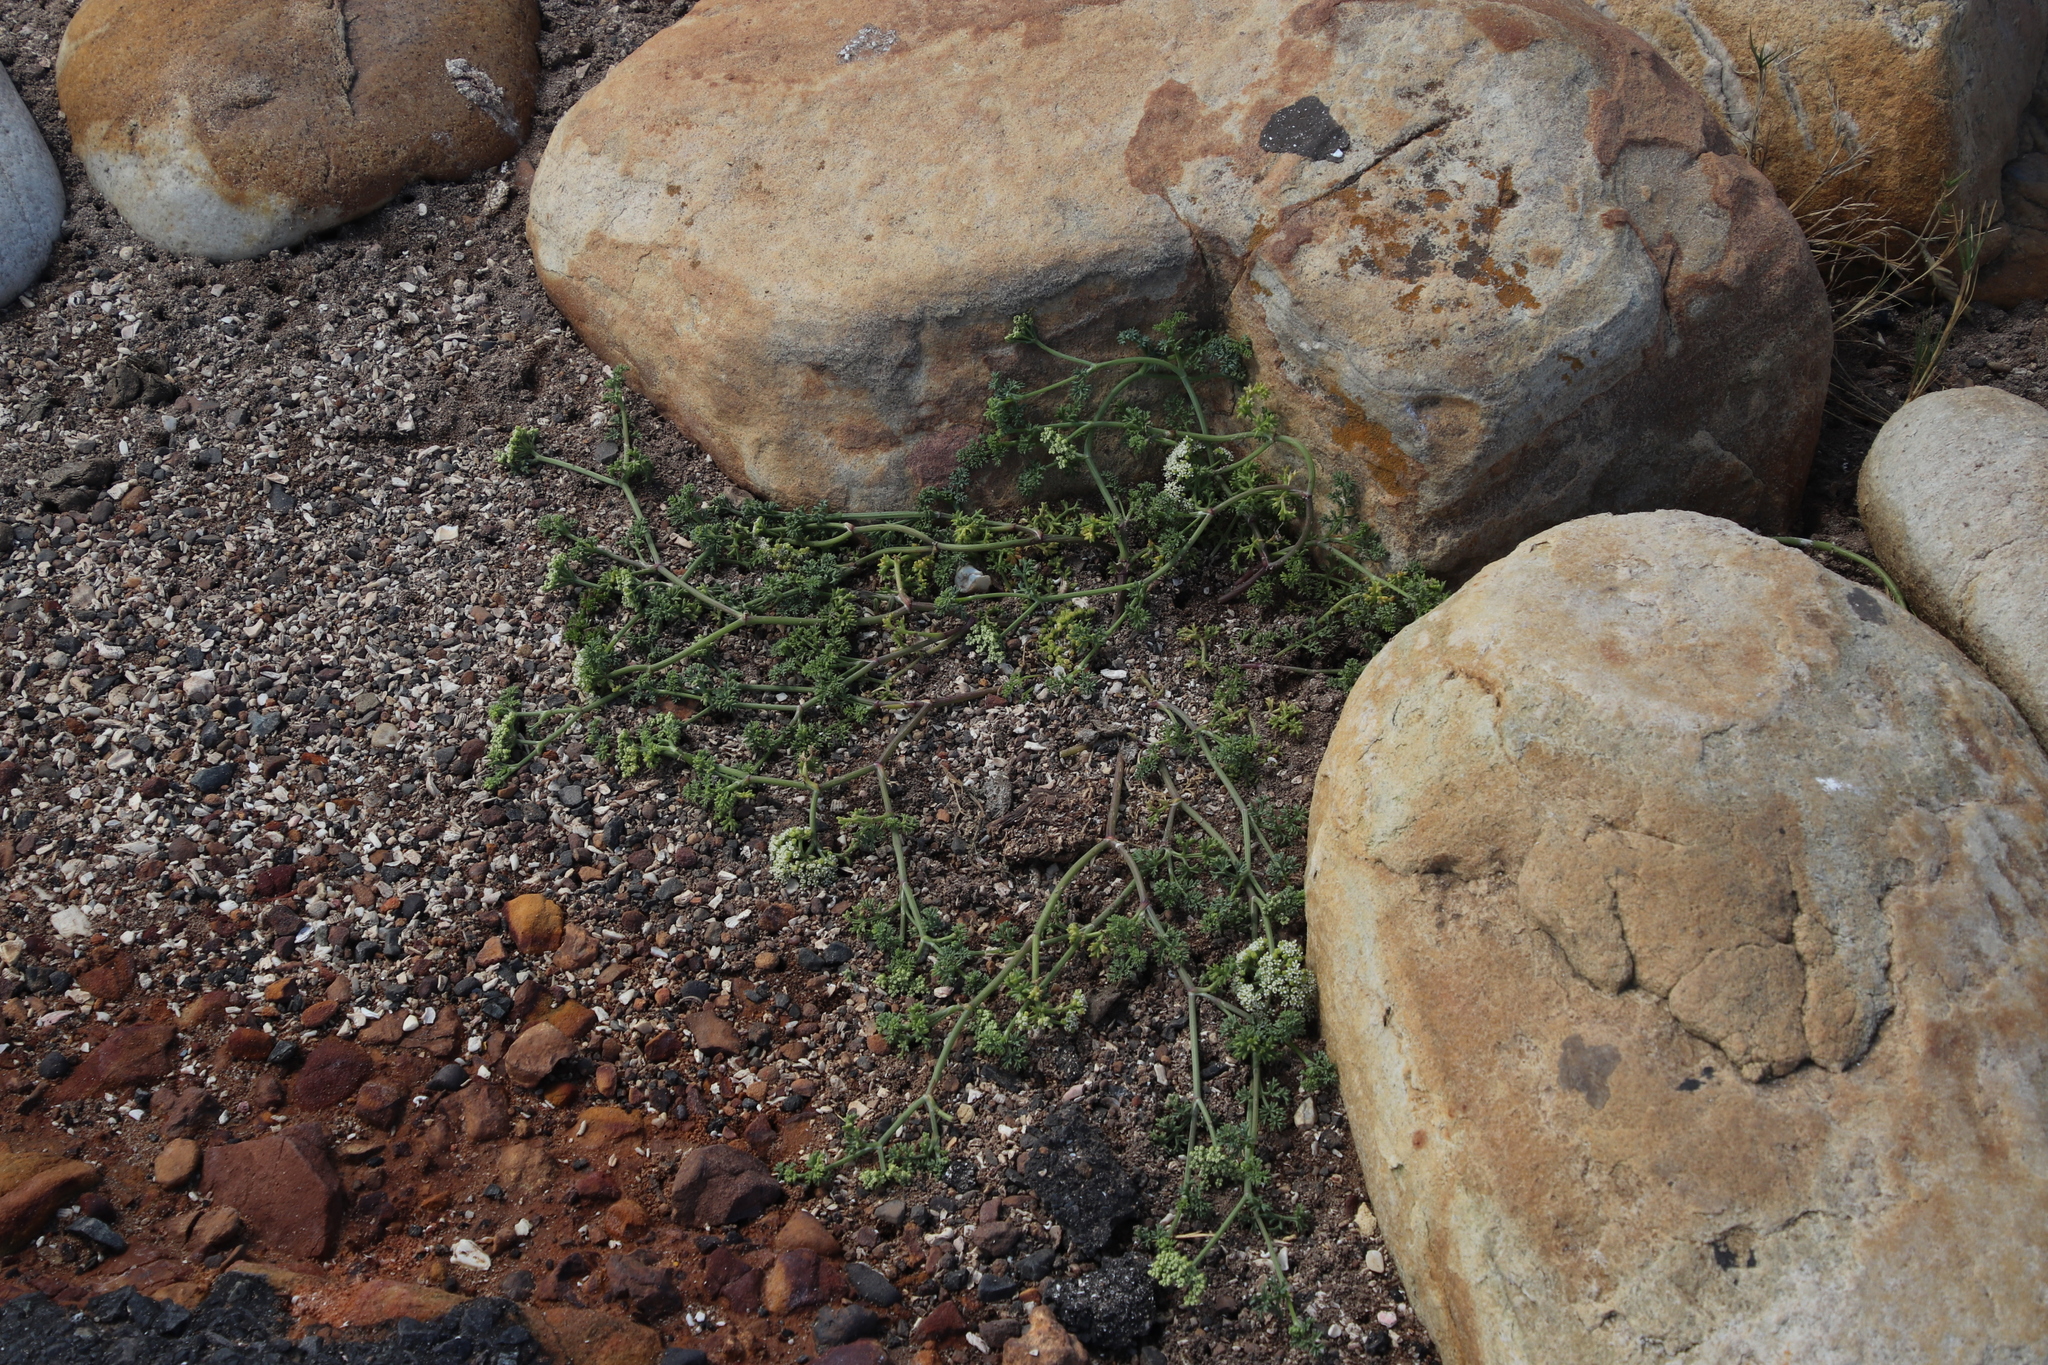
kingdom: Plantae
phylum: Tracheophyta
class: Magnoliopsida
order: Apiales
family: Apiaceae
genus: Dasispermum
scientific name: Dasispermum suffruticosum
